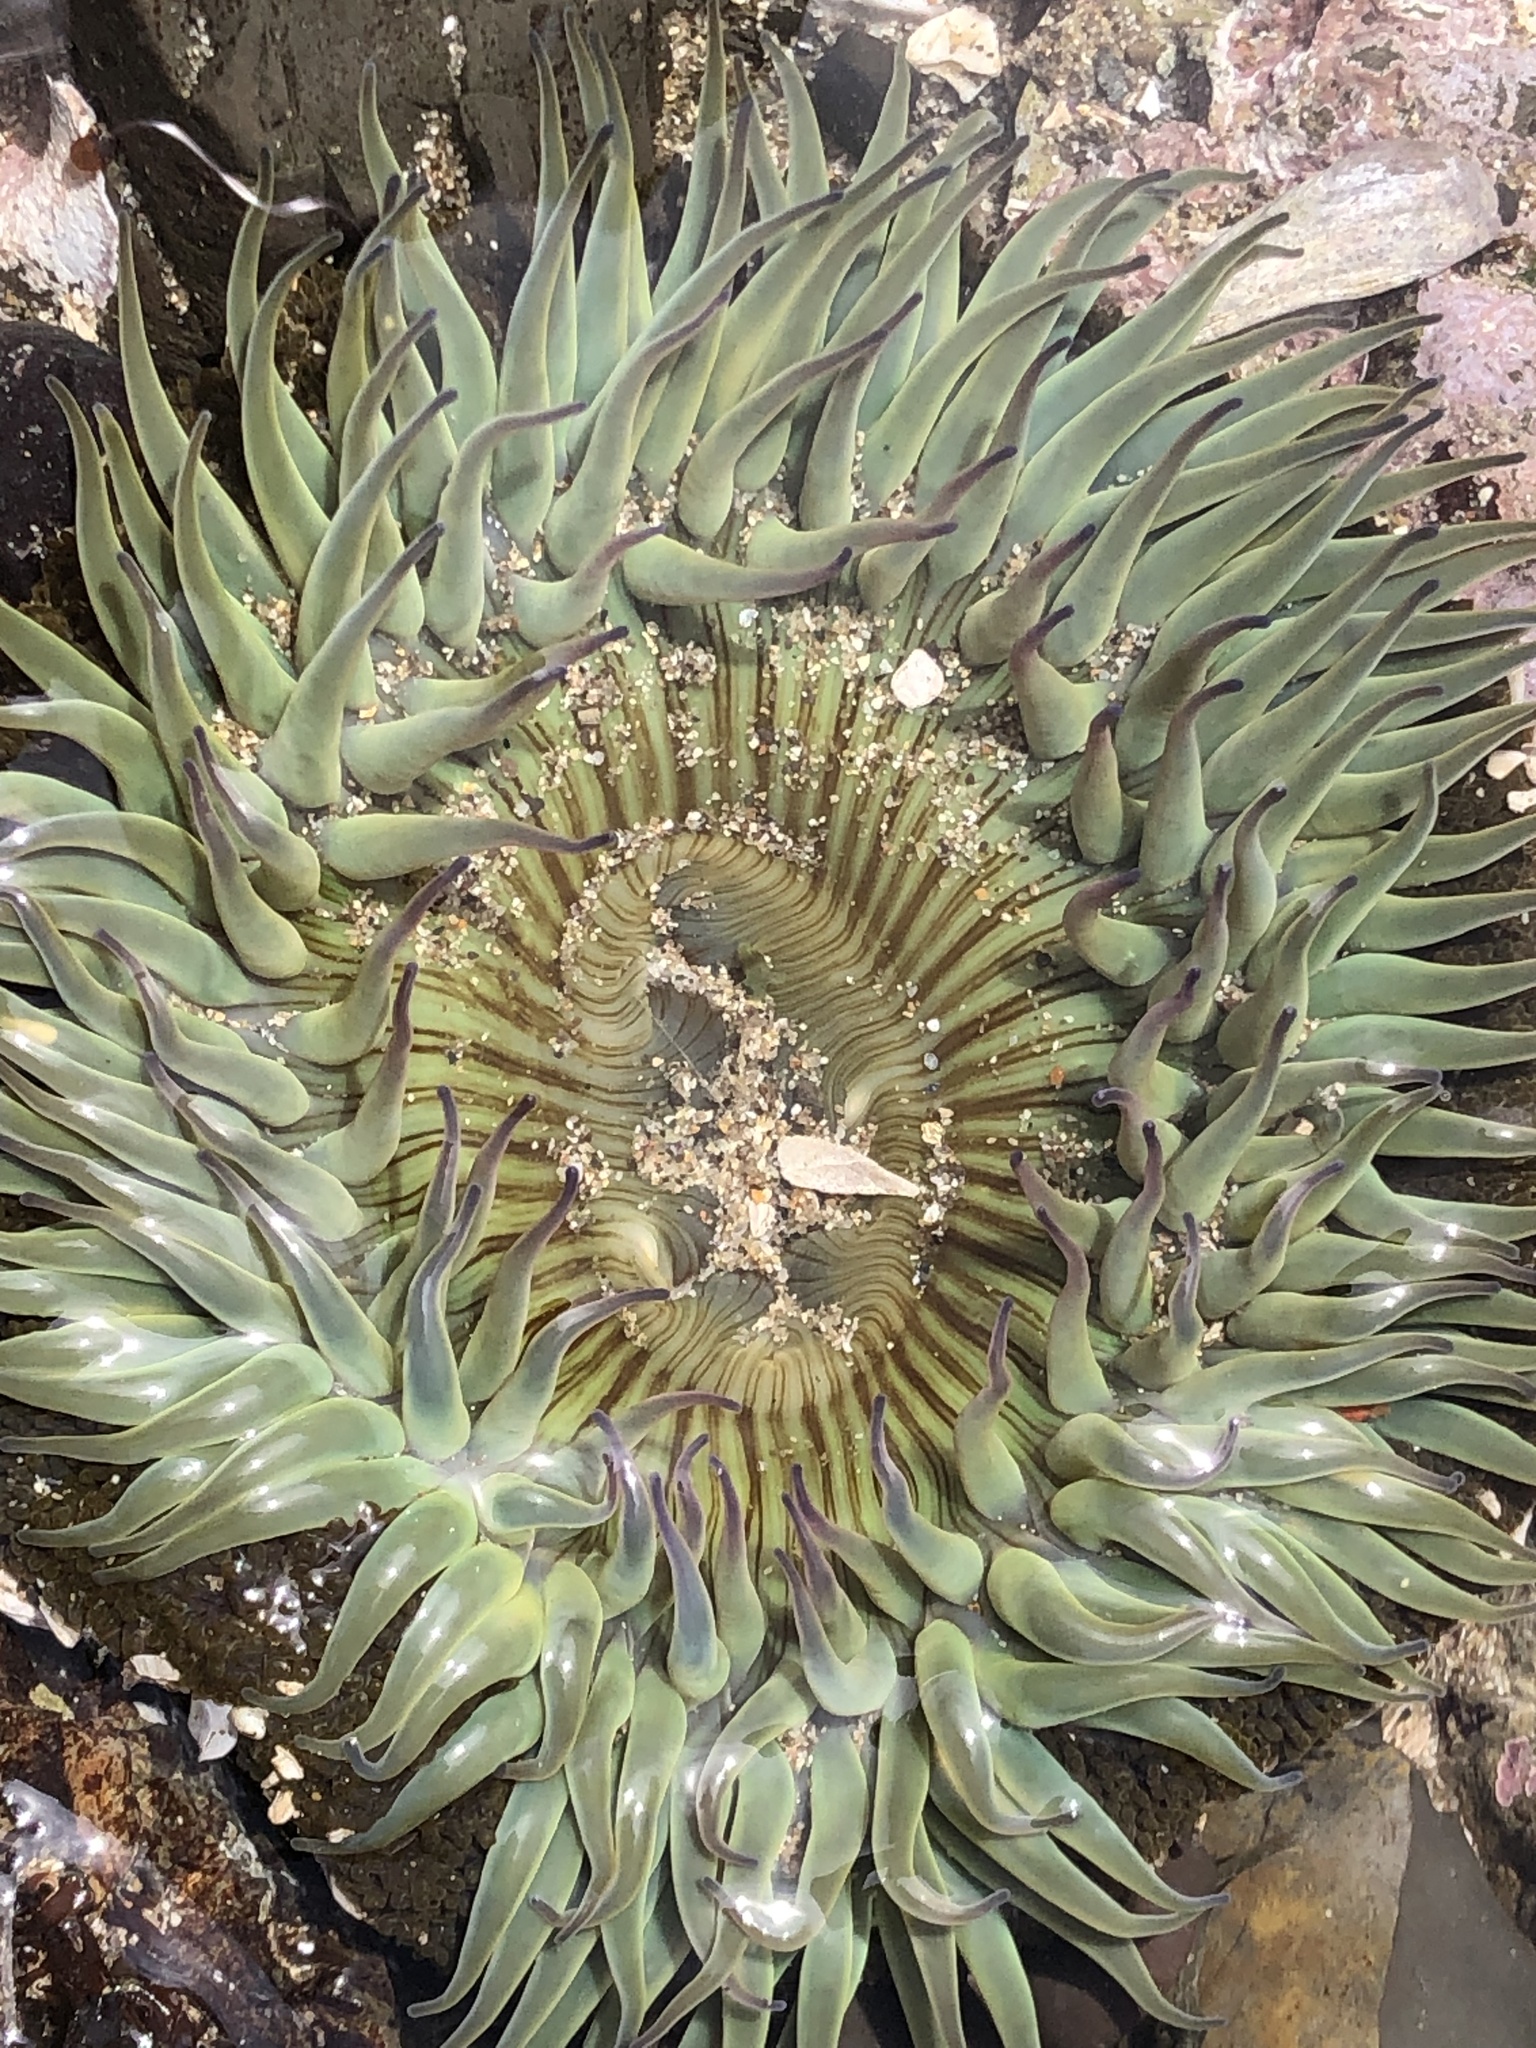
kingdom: Animalia
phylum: Cnidaria
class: Anthozoa
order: Actiniaria
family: Actiniidae
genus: Anthopleura
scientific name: Anthopleura sola
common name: Sun anemone
